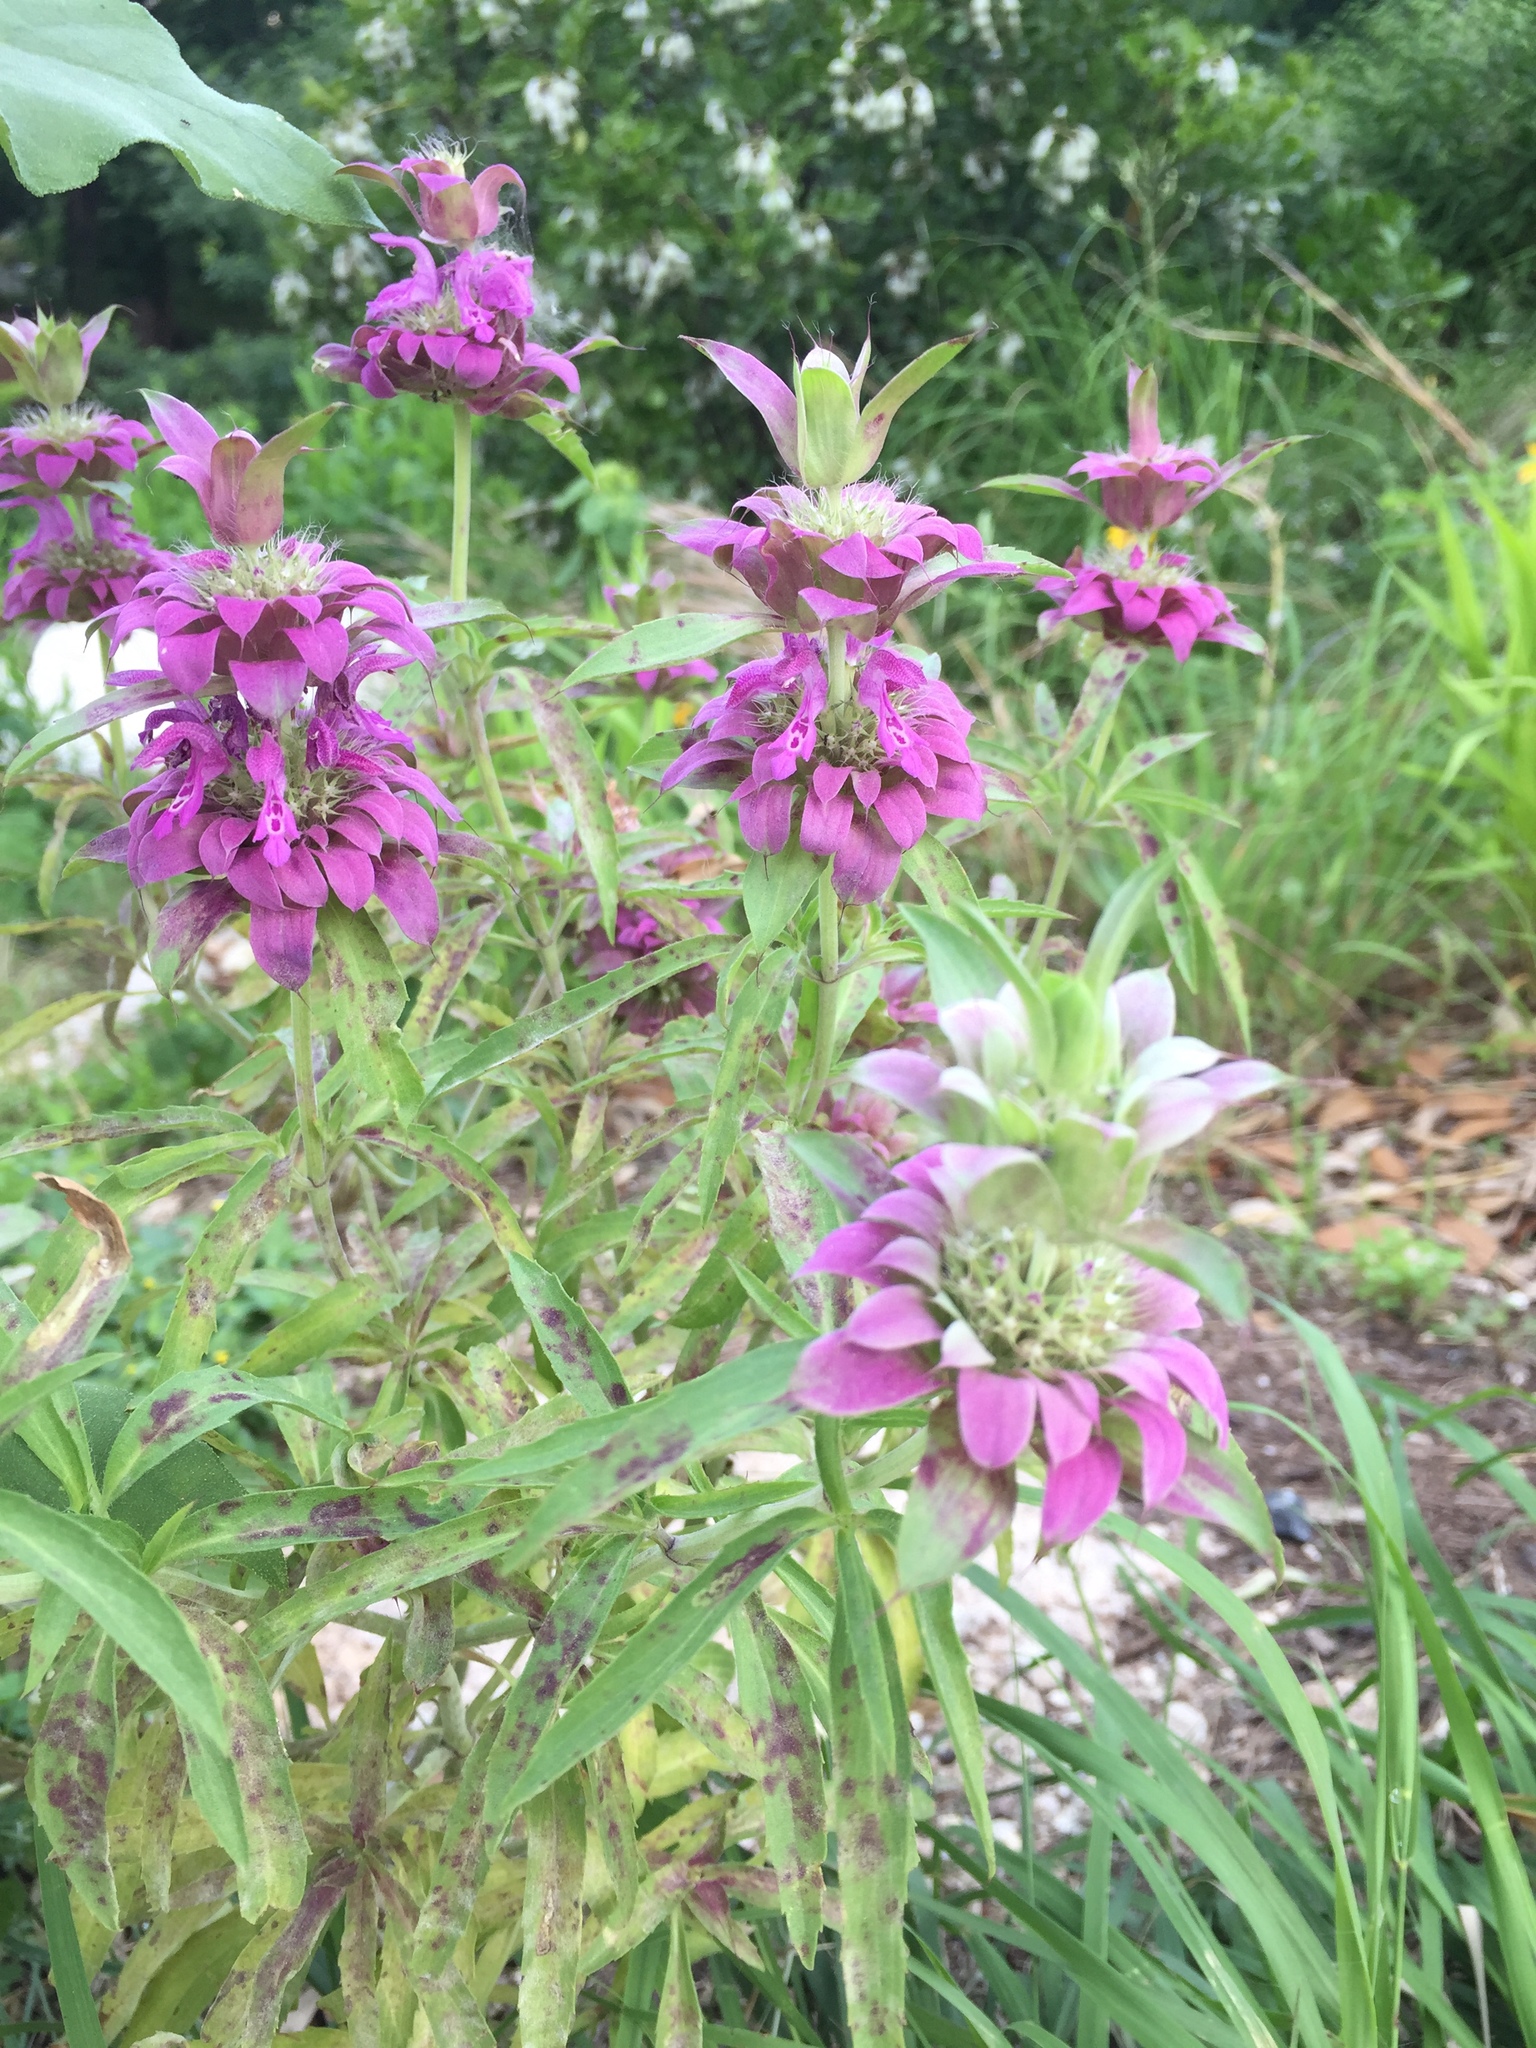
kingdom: Plantae
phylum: Tracheophyta
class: Magnoliopsida
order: Lamiales
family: Lamiaceae
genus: Monarda
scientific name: Monarda citriodora
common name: Lemon beebalm
